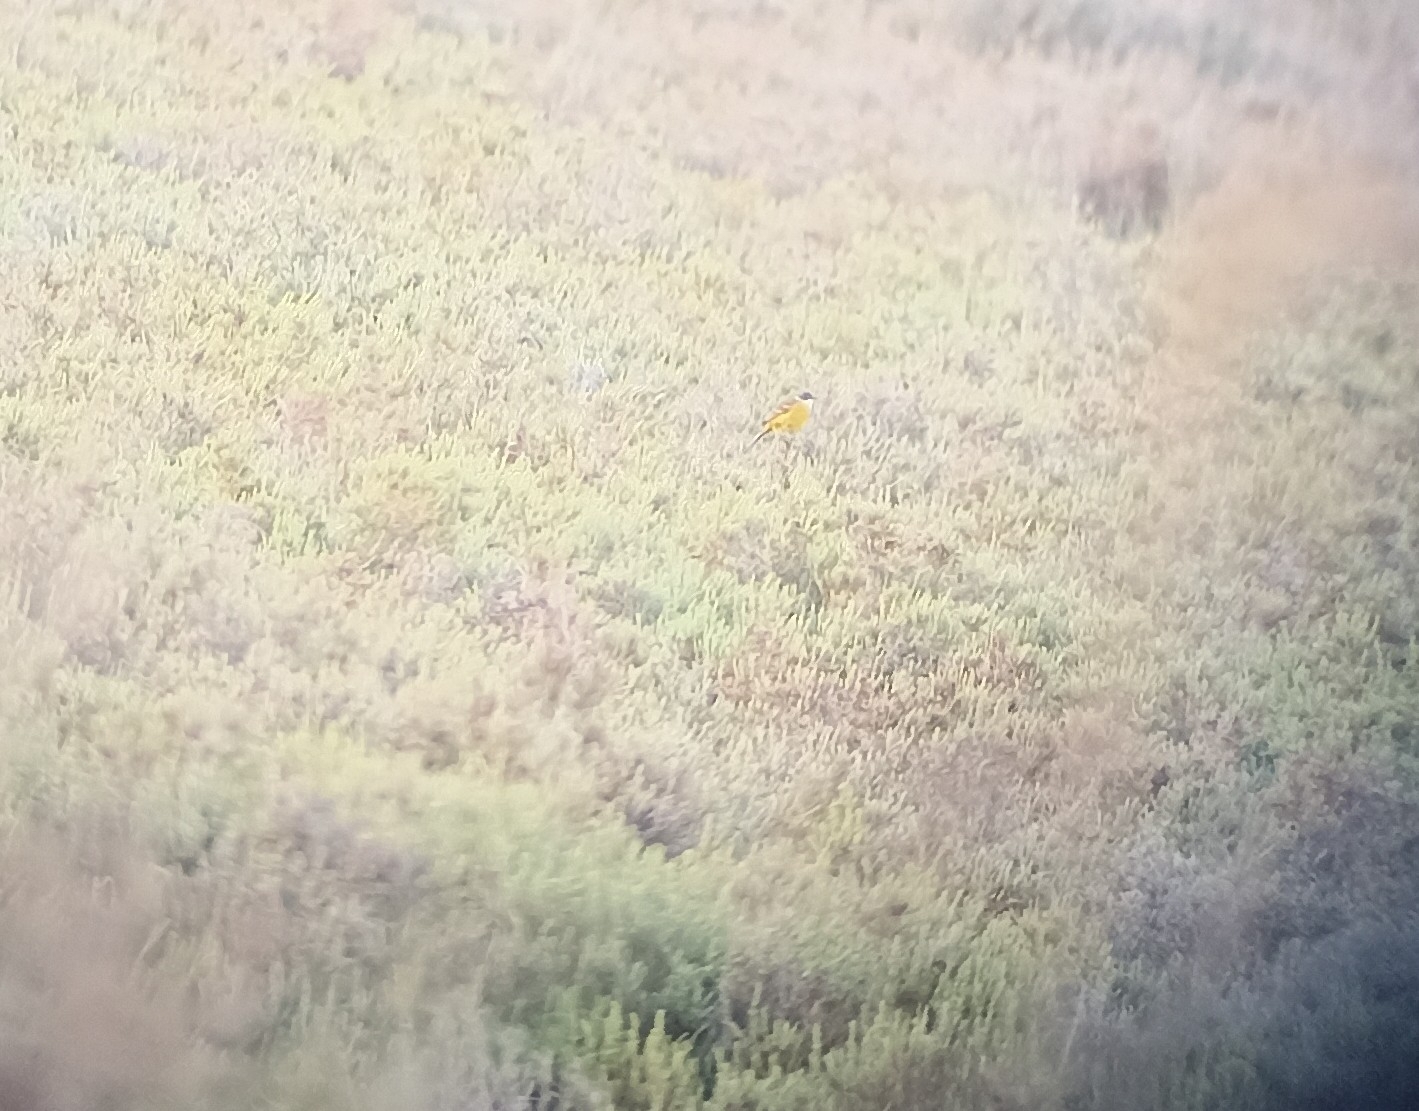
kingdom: Animalia
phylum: Chordata
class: Aves
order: Passeriformes
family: Motacillidae
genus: Motacilla
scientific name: Motacilla flava
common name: Western yellow wagtail
